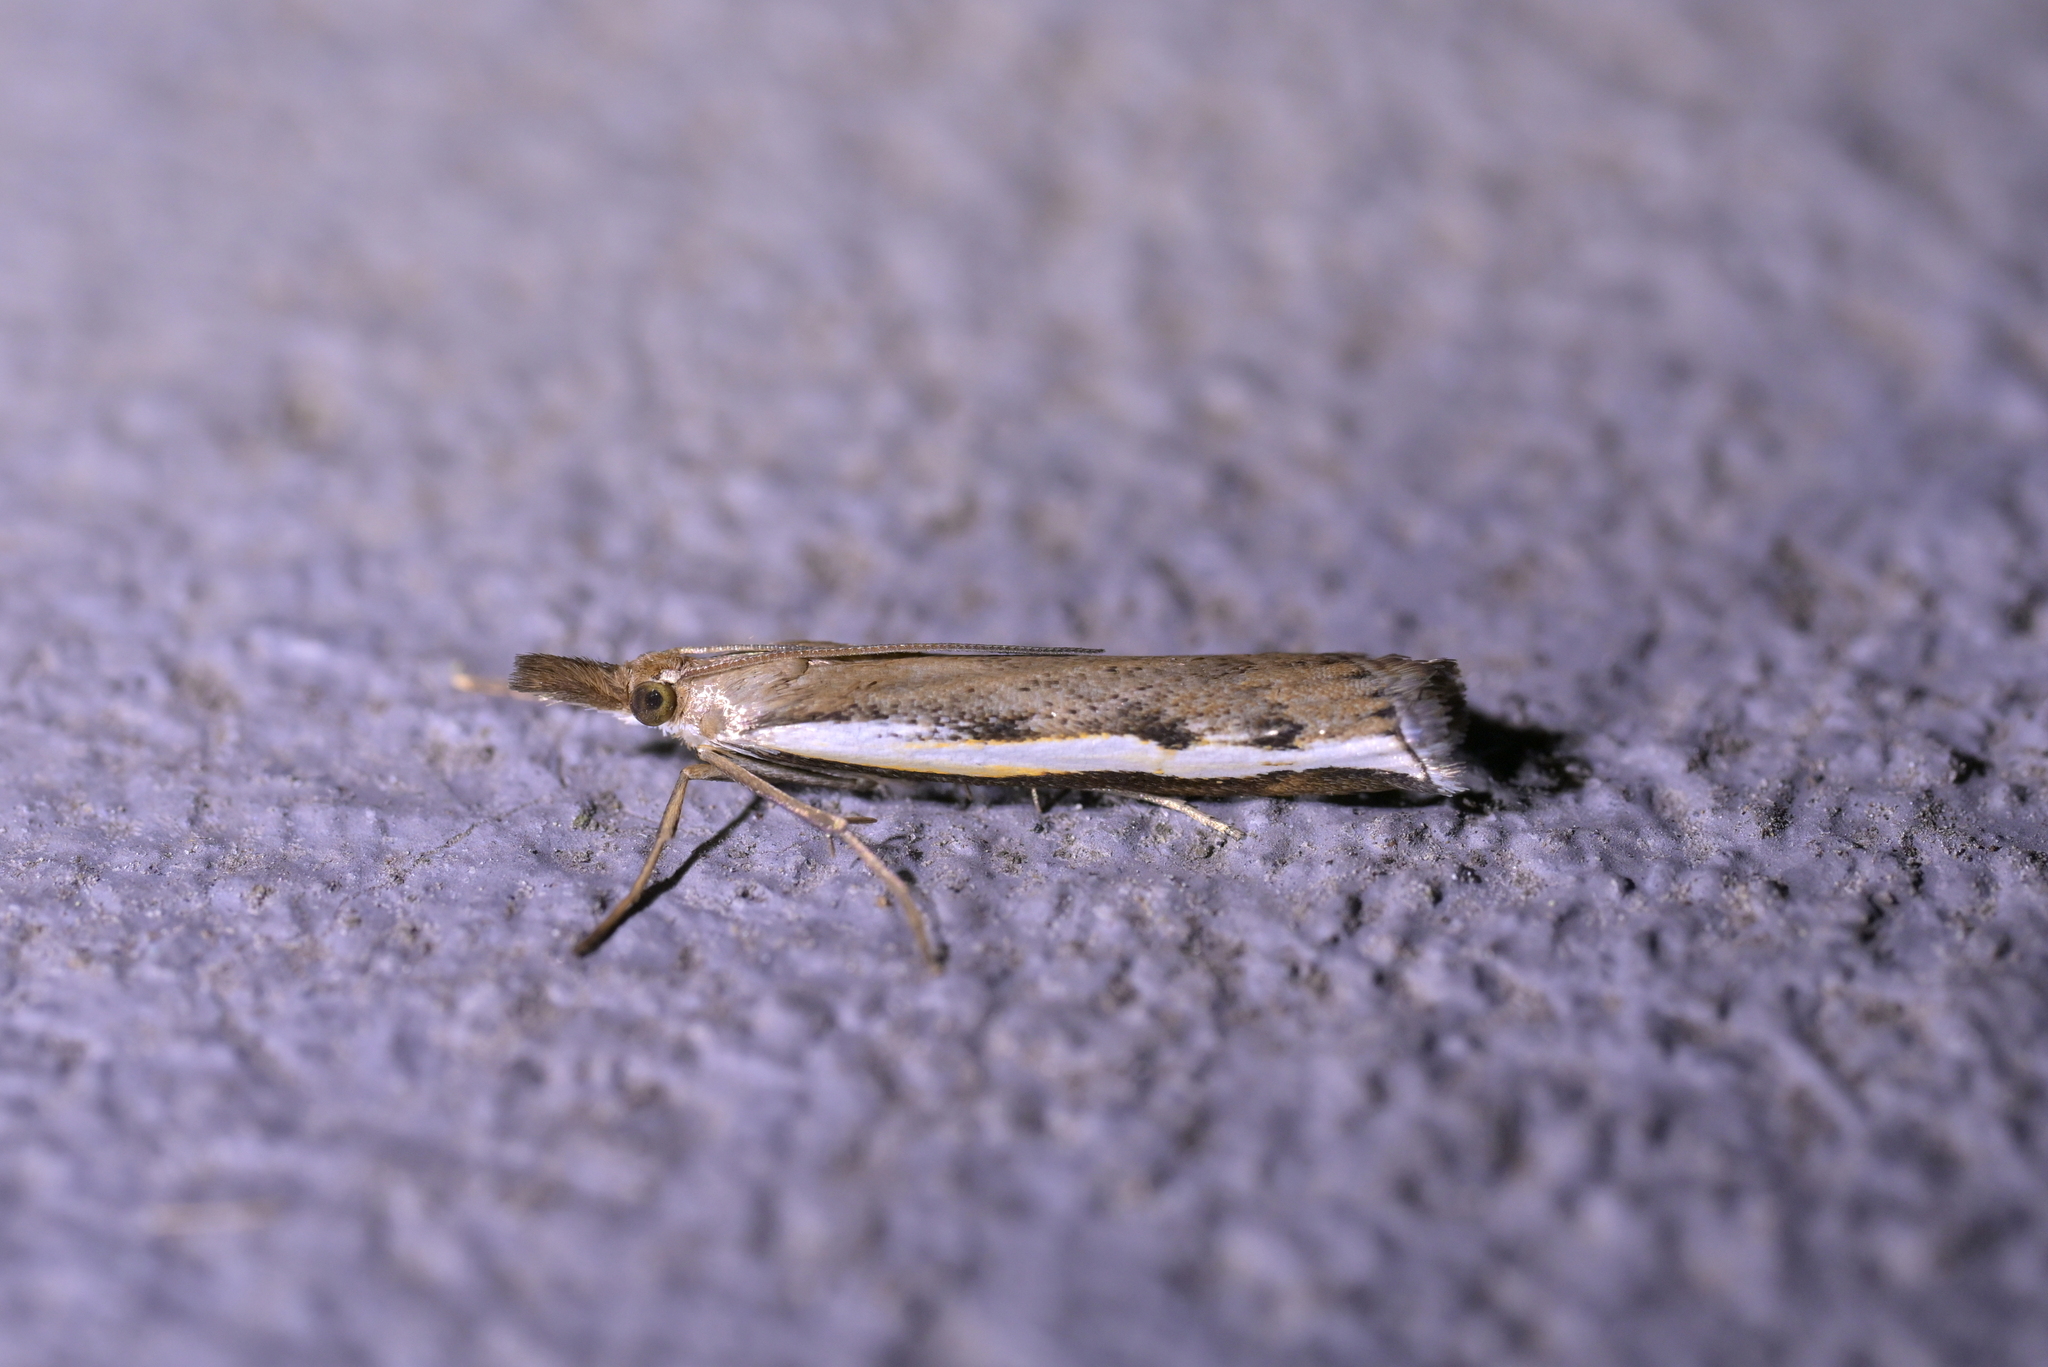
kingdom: Animalia
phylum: Arthropoda
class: Insecta
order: Lepidoptera
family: Crambidae
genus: Orocrambus
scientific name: Orocrambus flexuosellus
